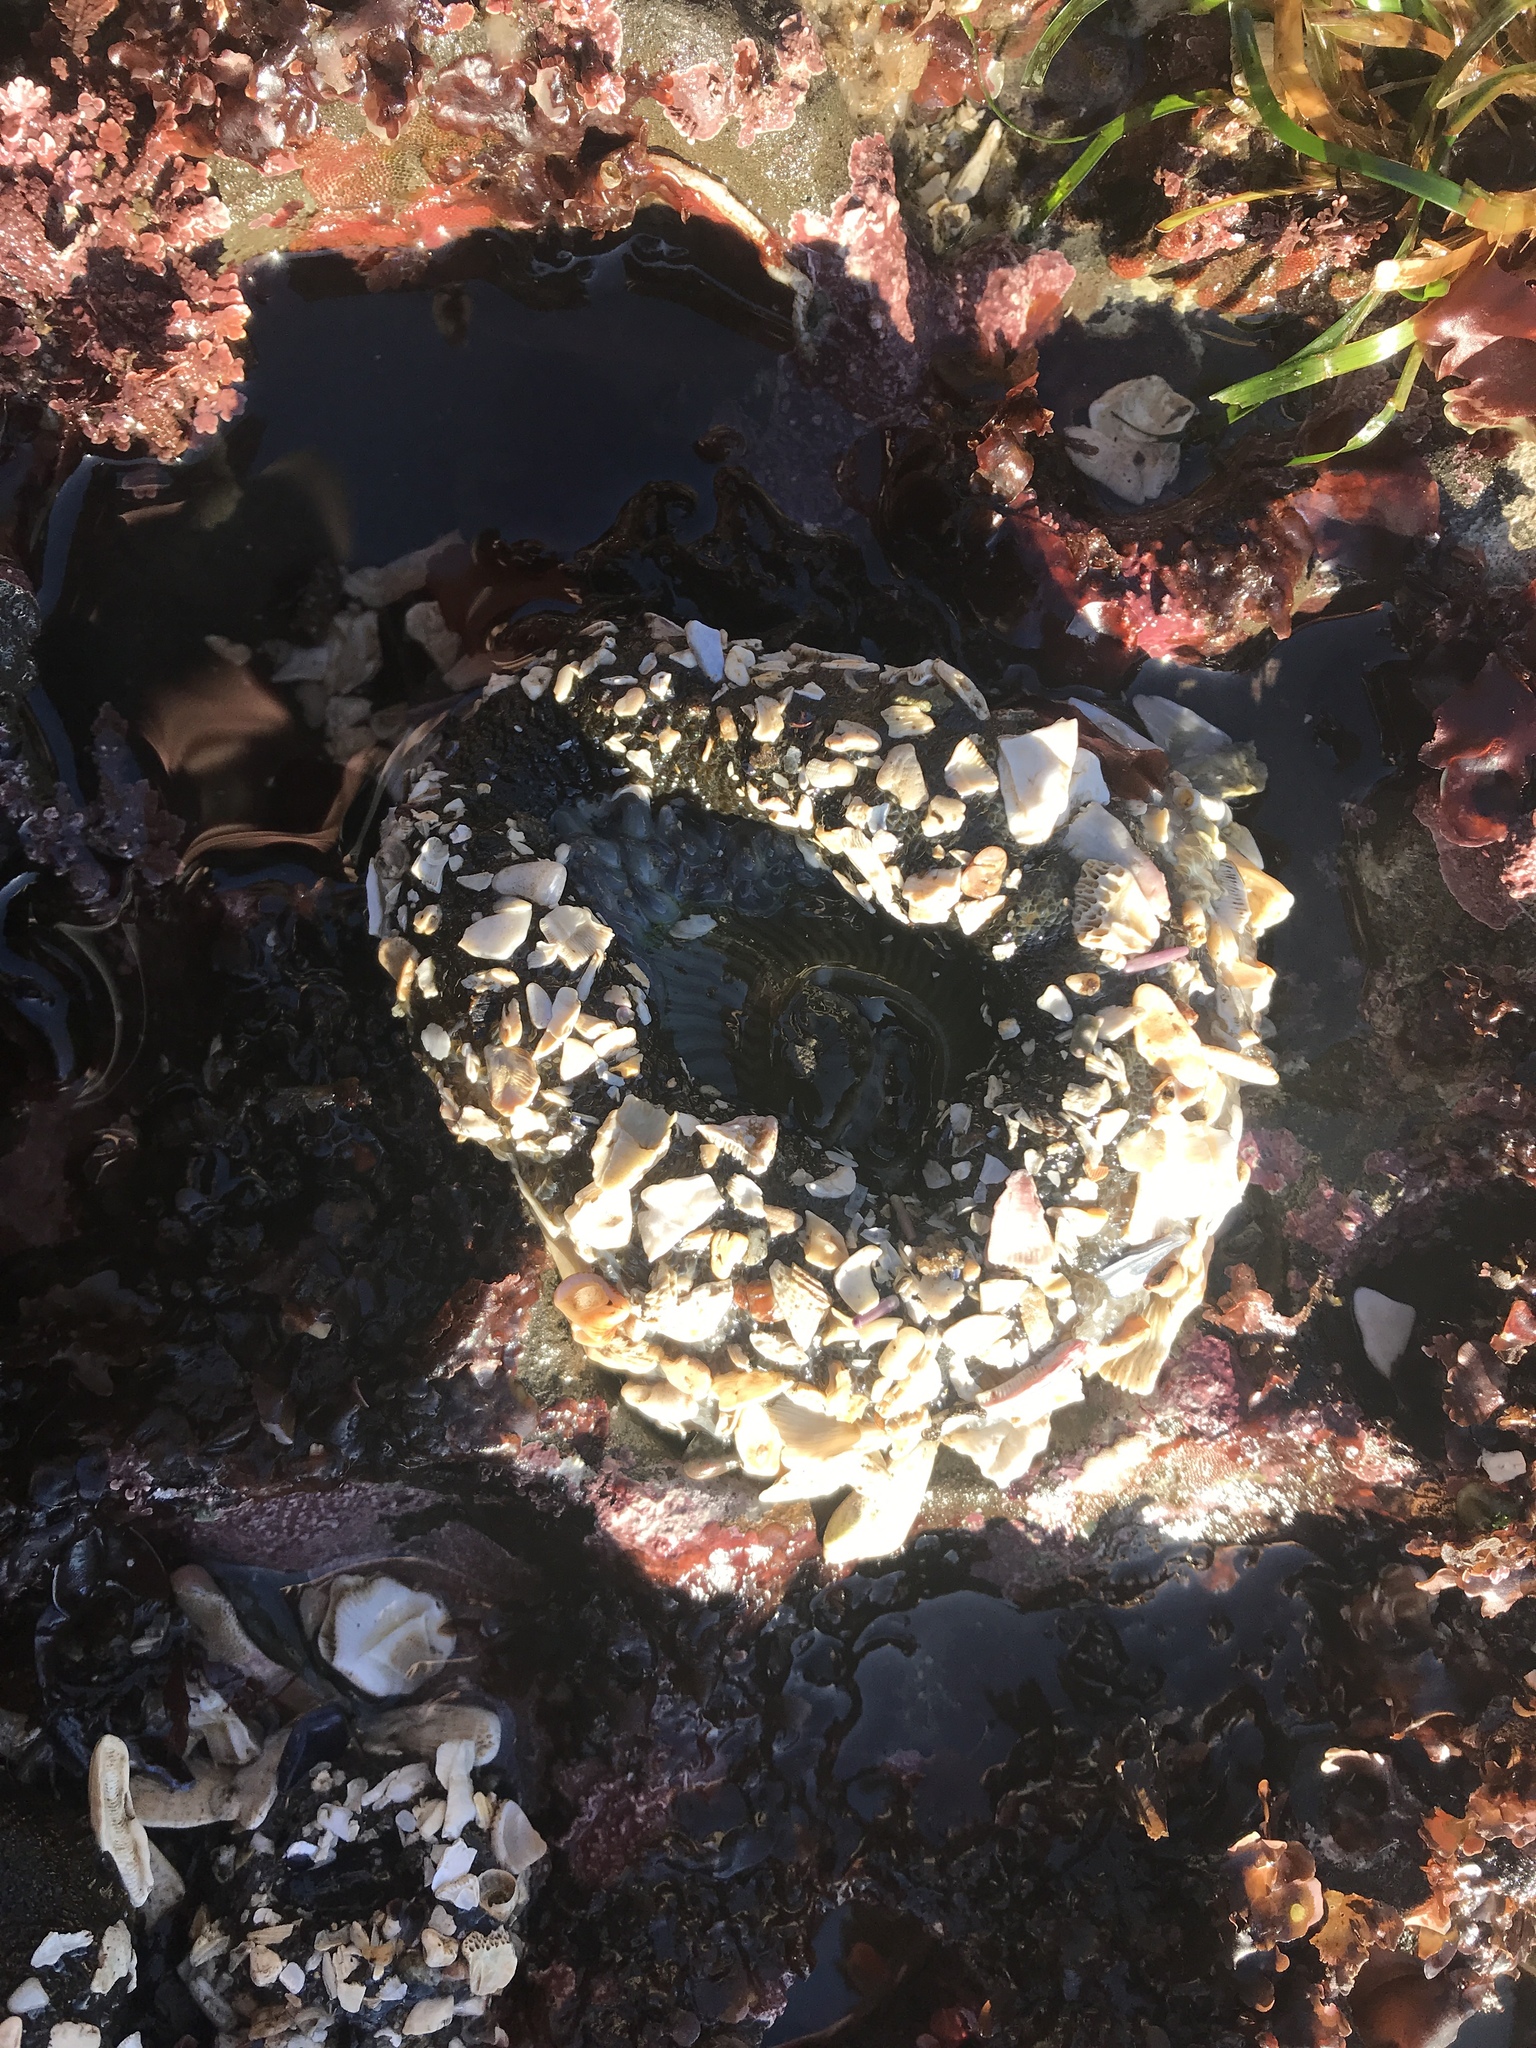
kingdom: Animalia
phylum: Cnidaria
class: Anthozoa
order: Actiniaria
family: Actiniidae
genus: Anthopleura
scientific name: Anthopleura sola
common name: Sun anemone
